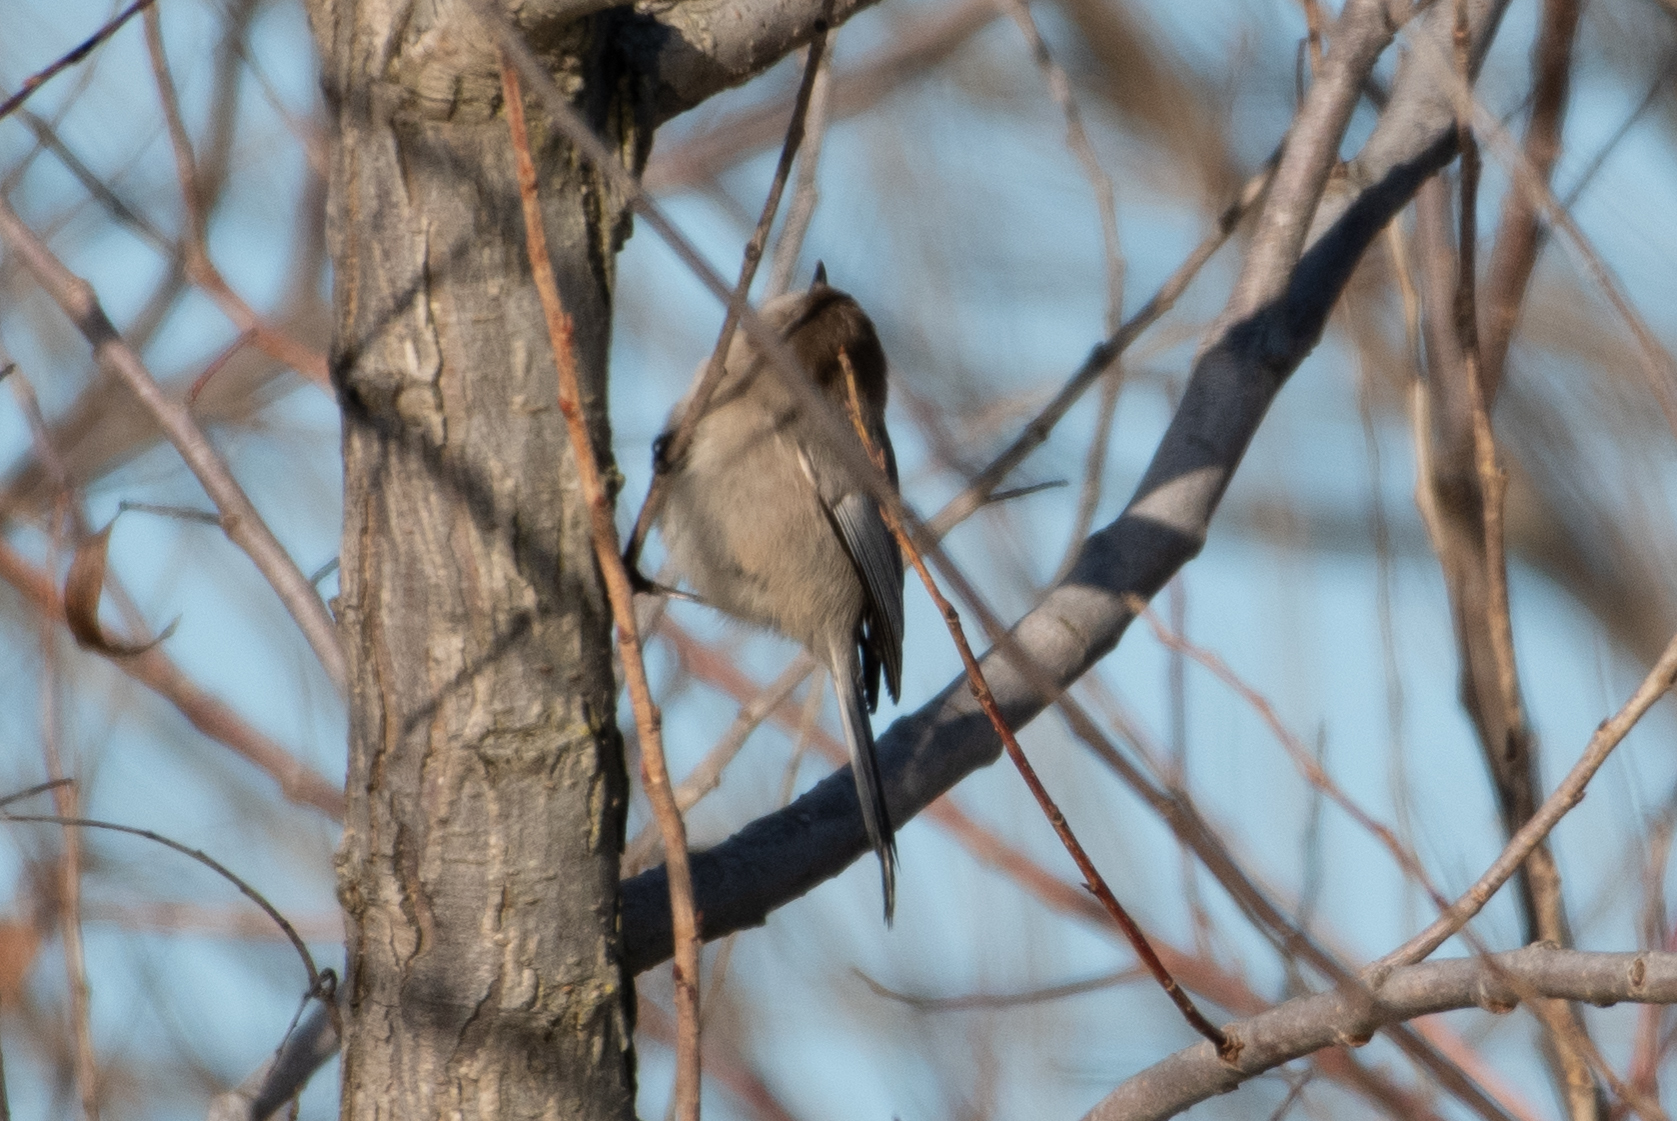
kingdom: Animalia
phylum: Chordata
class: Aves
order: Passeriformes
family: Aegithalidae
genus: Psaltriparus
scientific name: Psaltriparus minimus
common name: American bushtit
